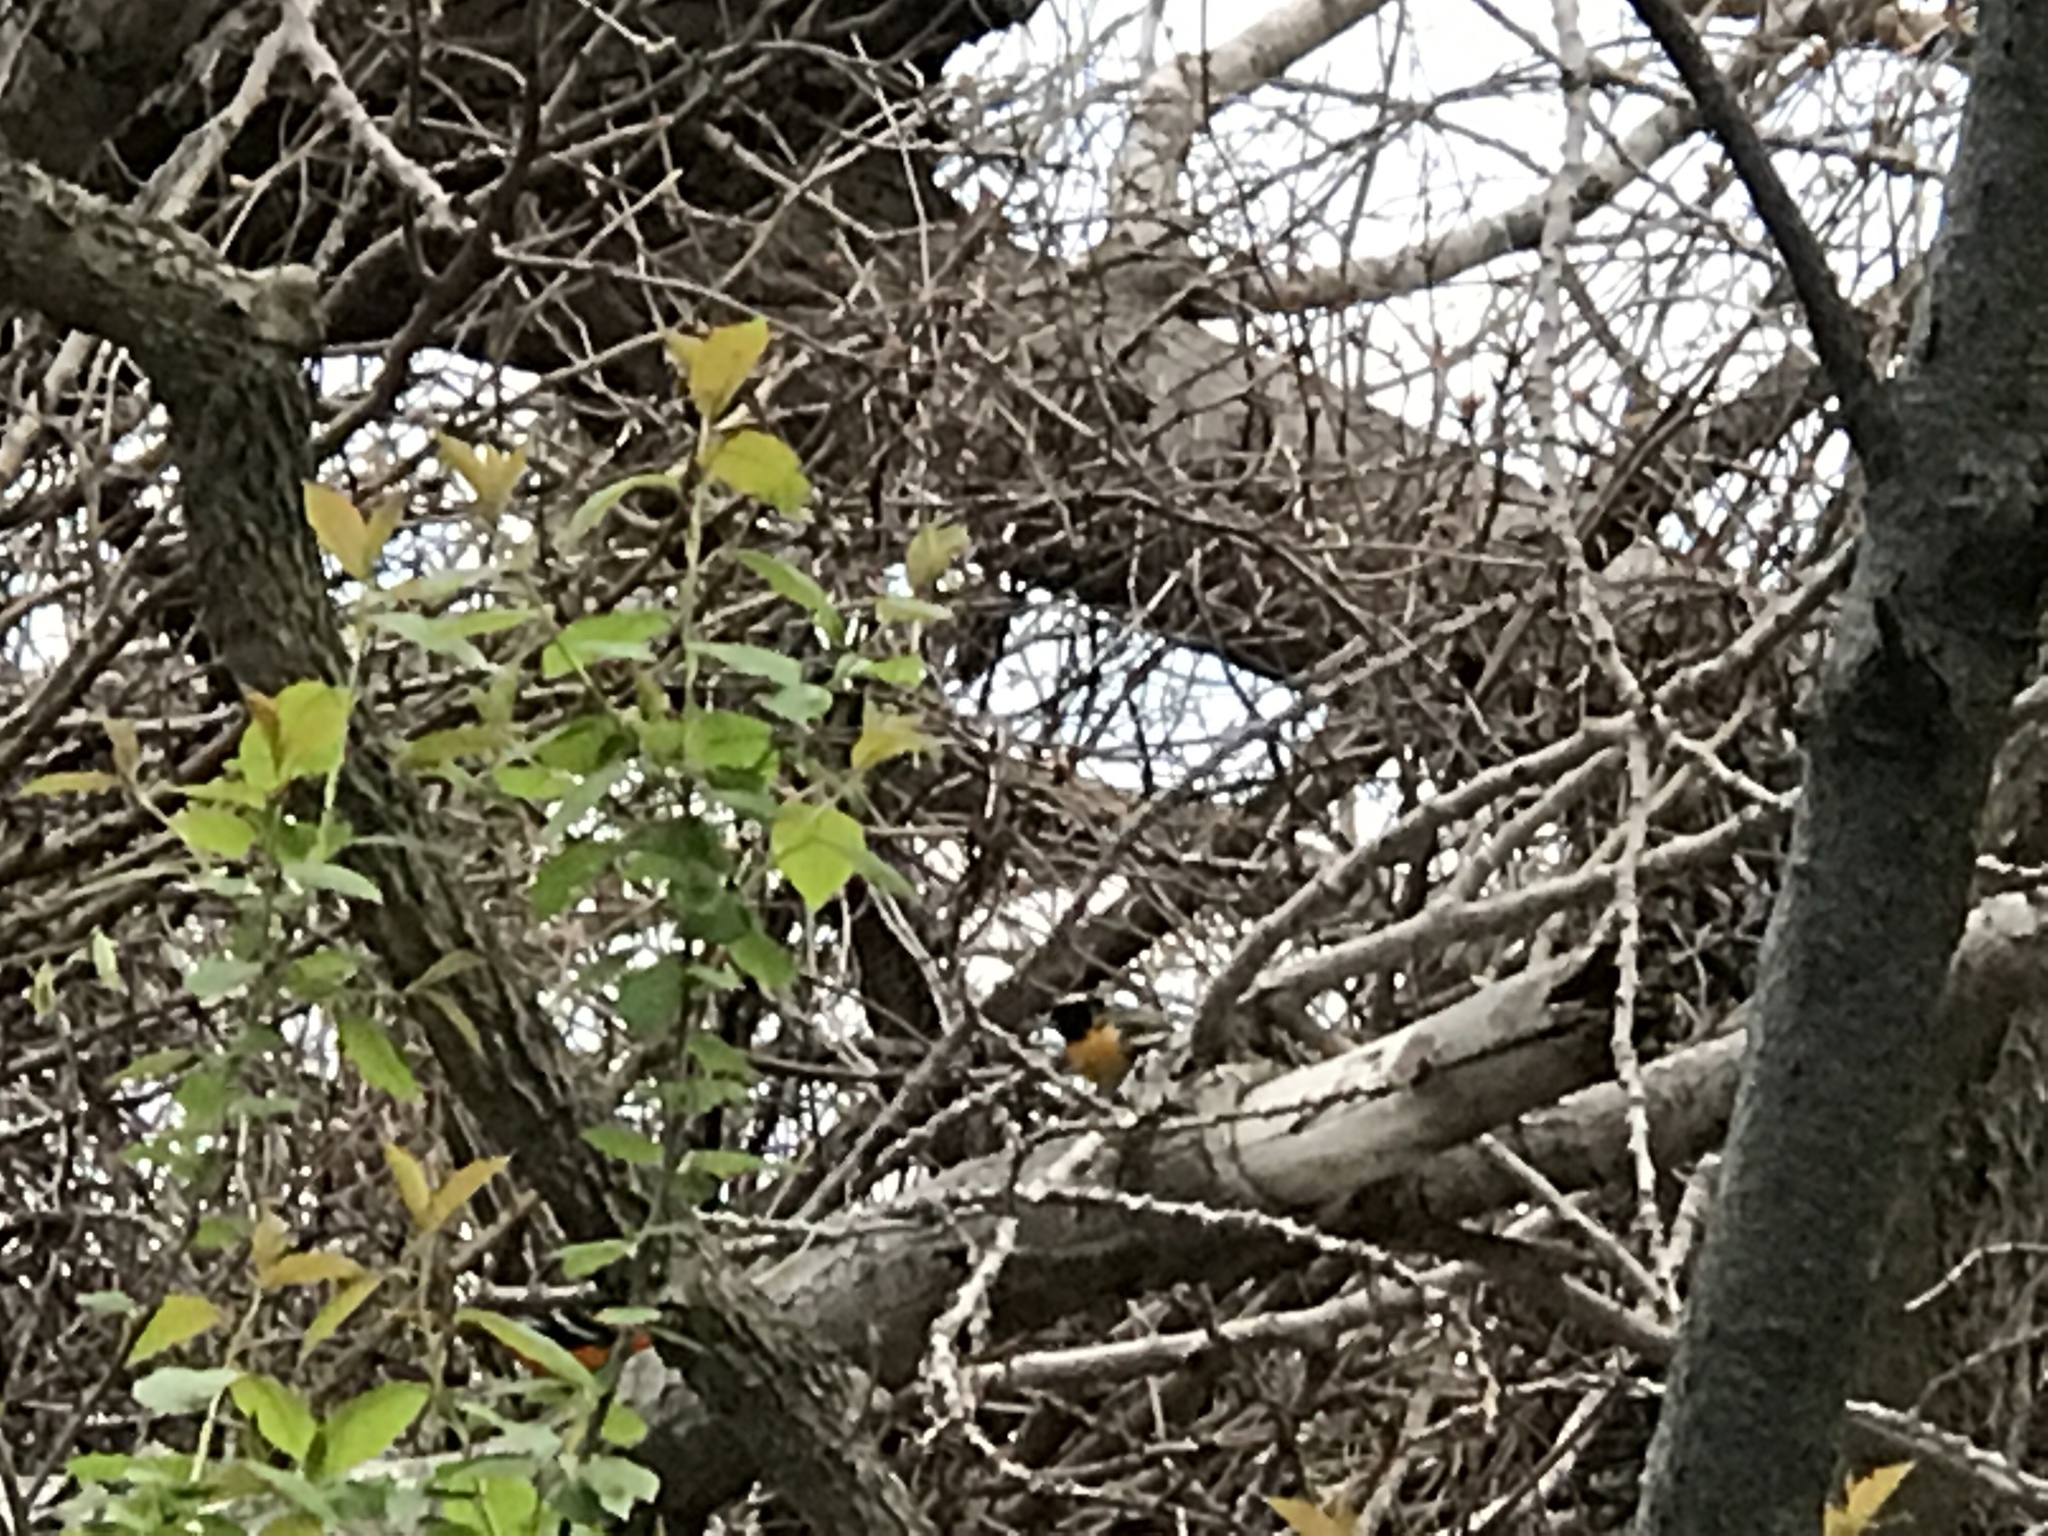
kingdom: Animalia
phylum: Chordata
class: Aves
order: Passeriformes
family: Icteridae
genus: Icterus
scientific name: Icterus galbula
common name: Baltimore oriole
